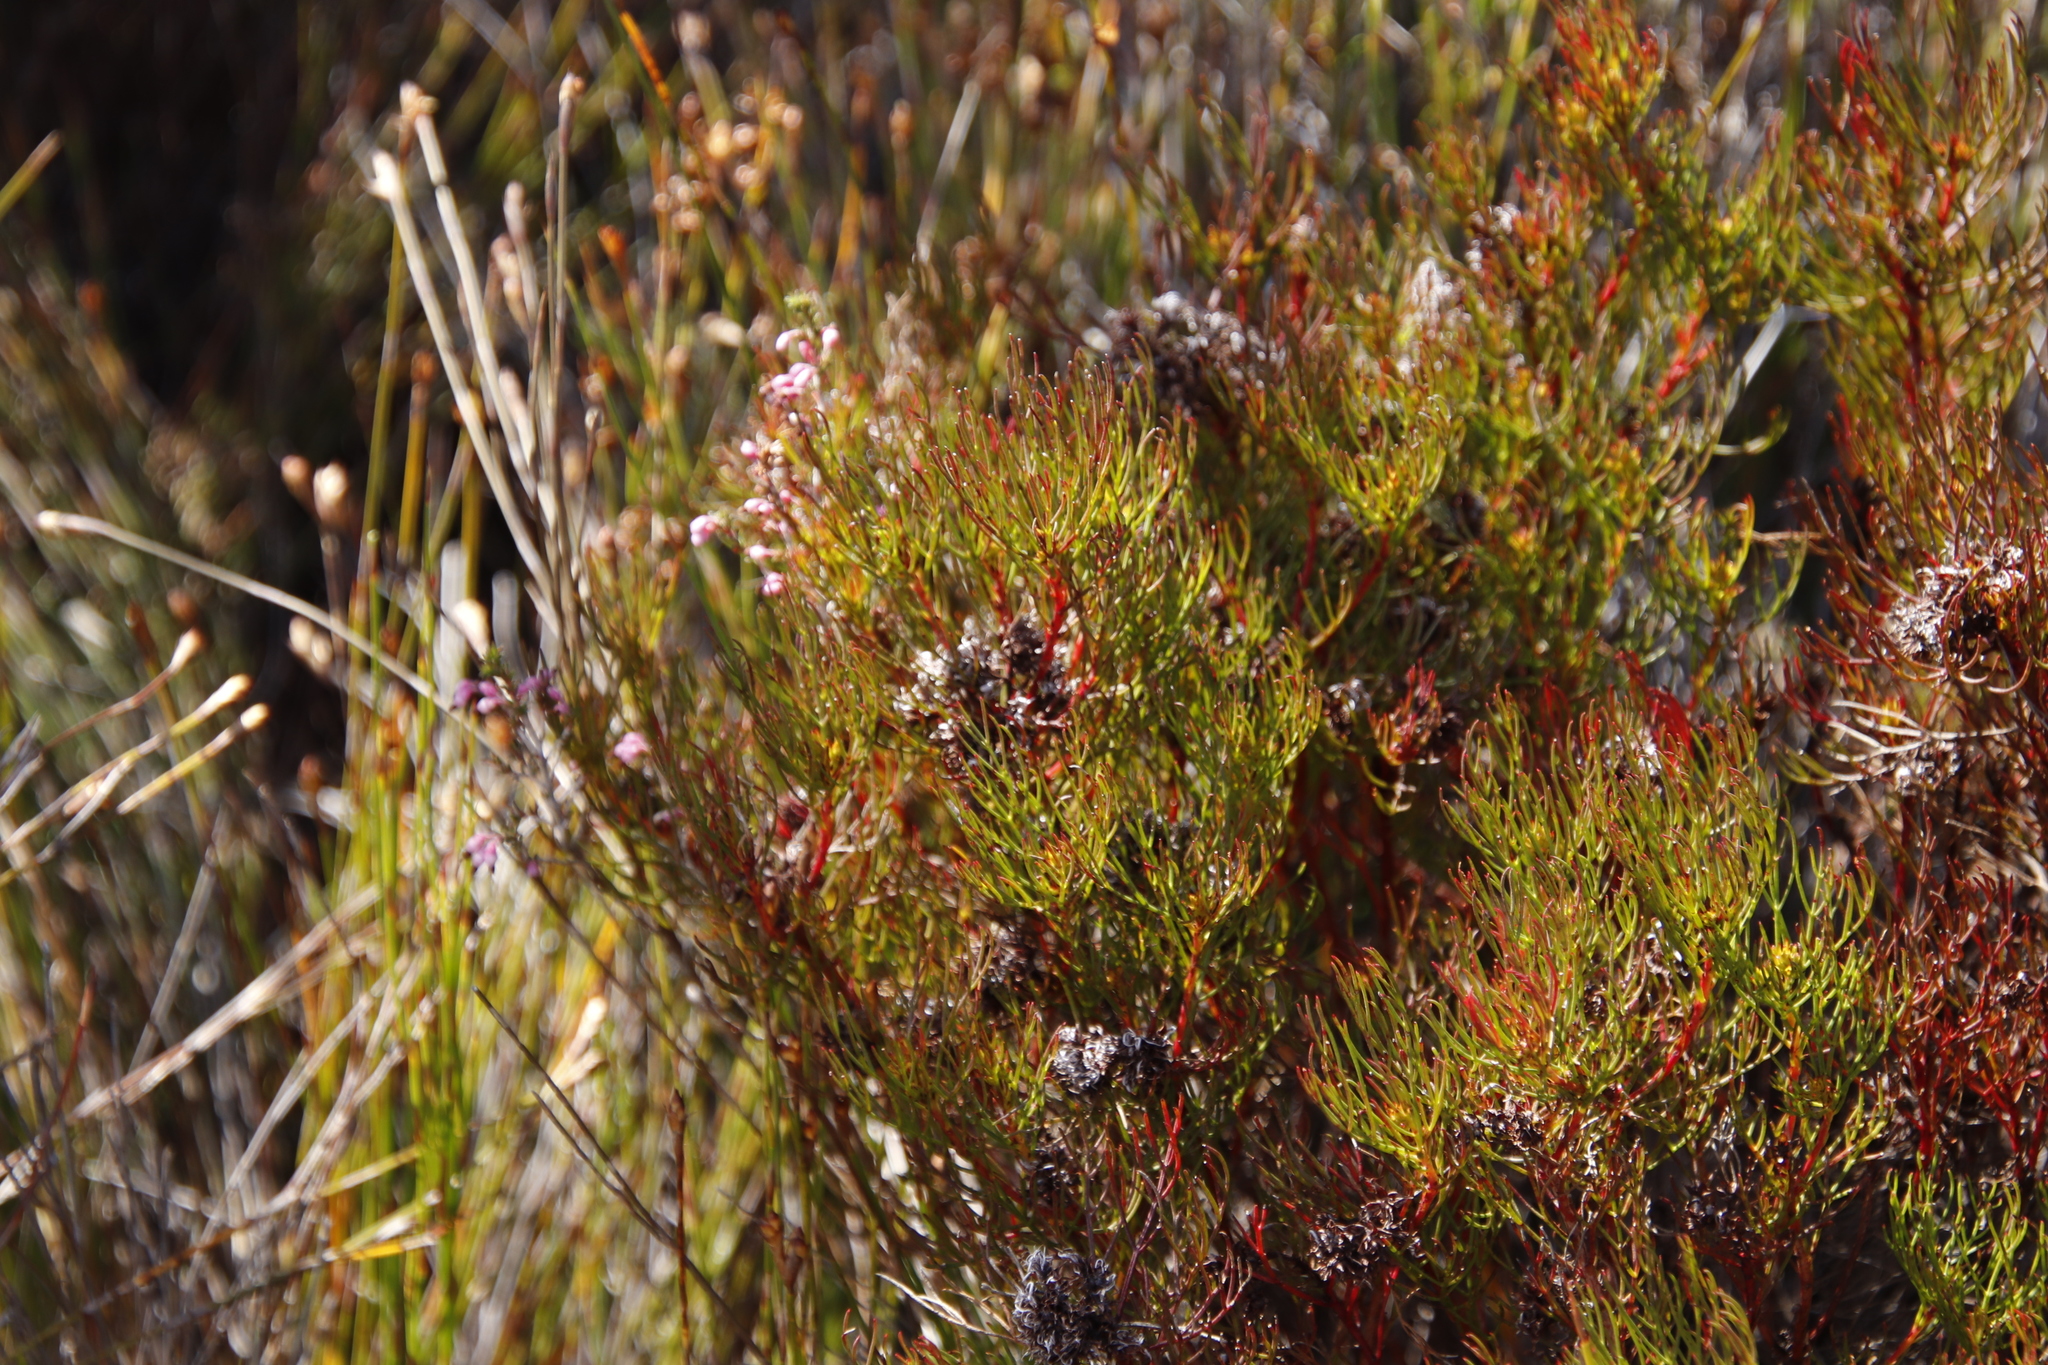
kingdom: Plantae
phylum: Tracheophyta
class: Magnoliopsida
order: Proteales
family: Proteaceae
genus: Serruria
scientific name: Serruria bolusii
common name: Agulhas spiderhead
